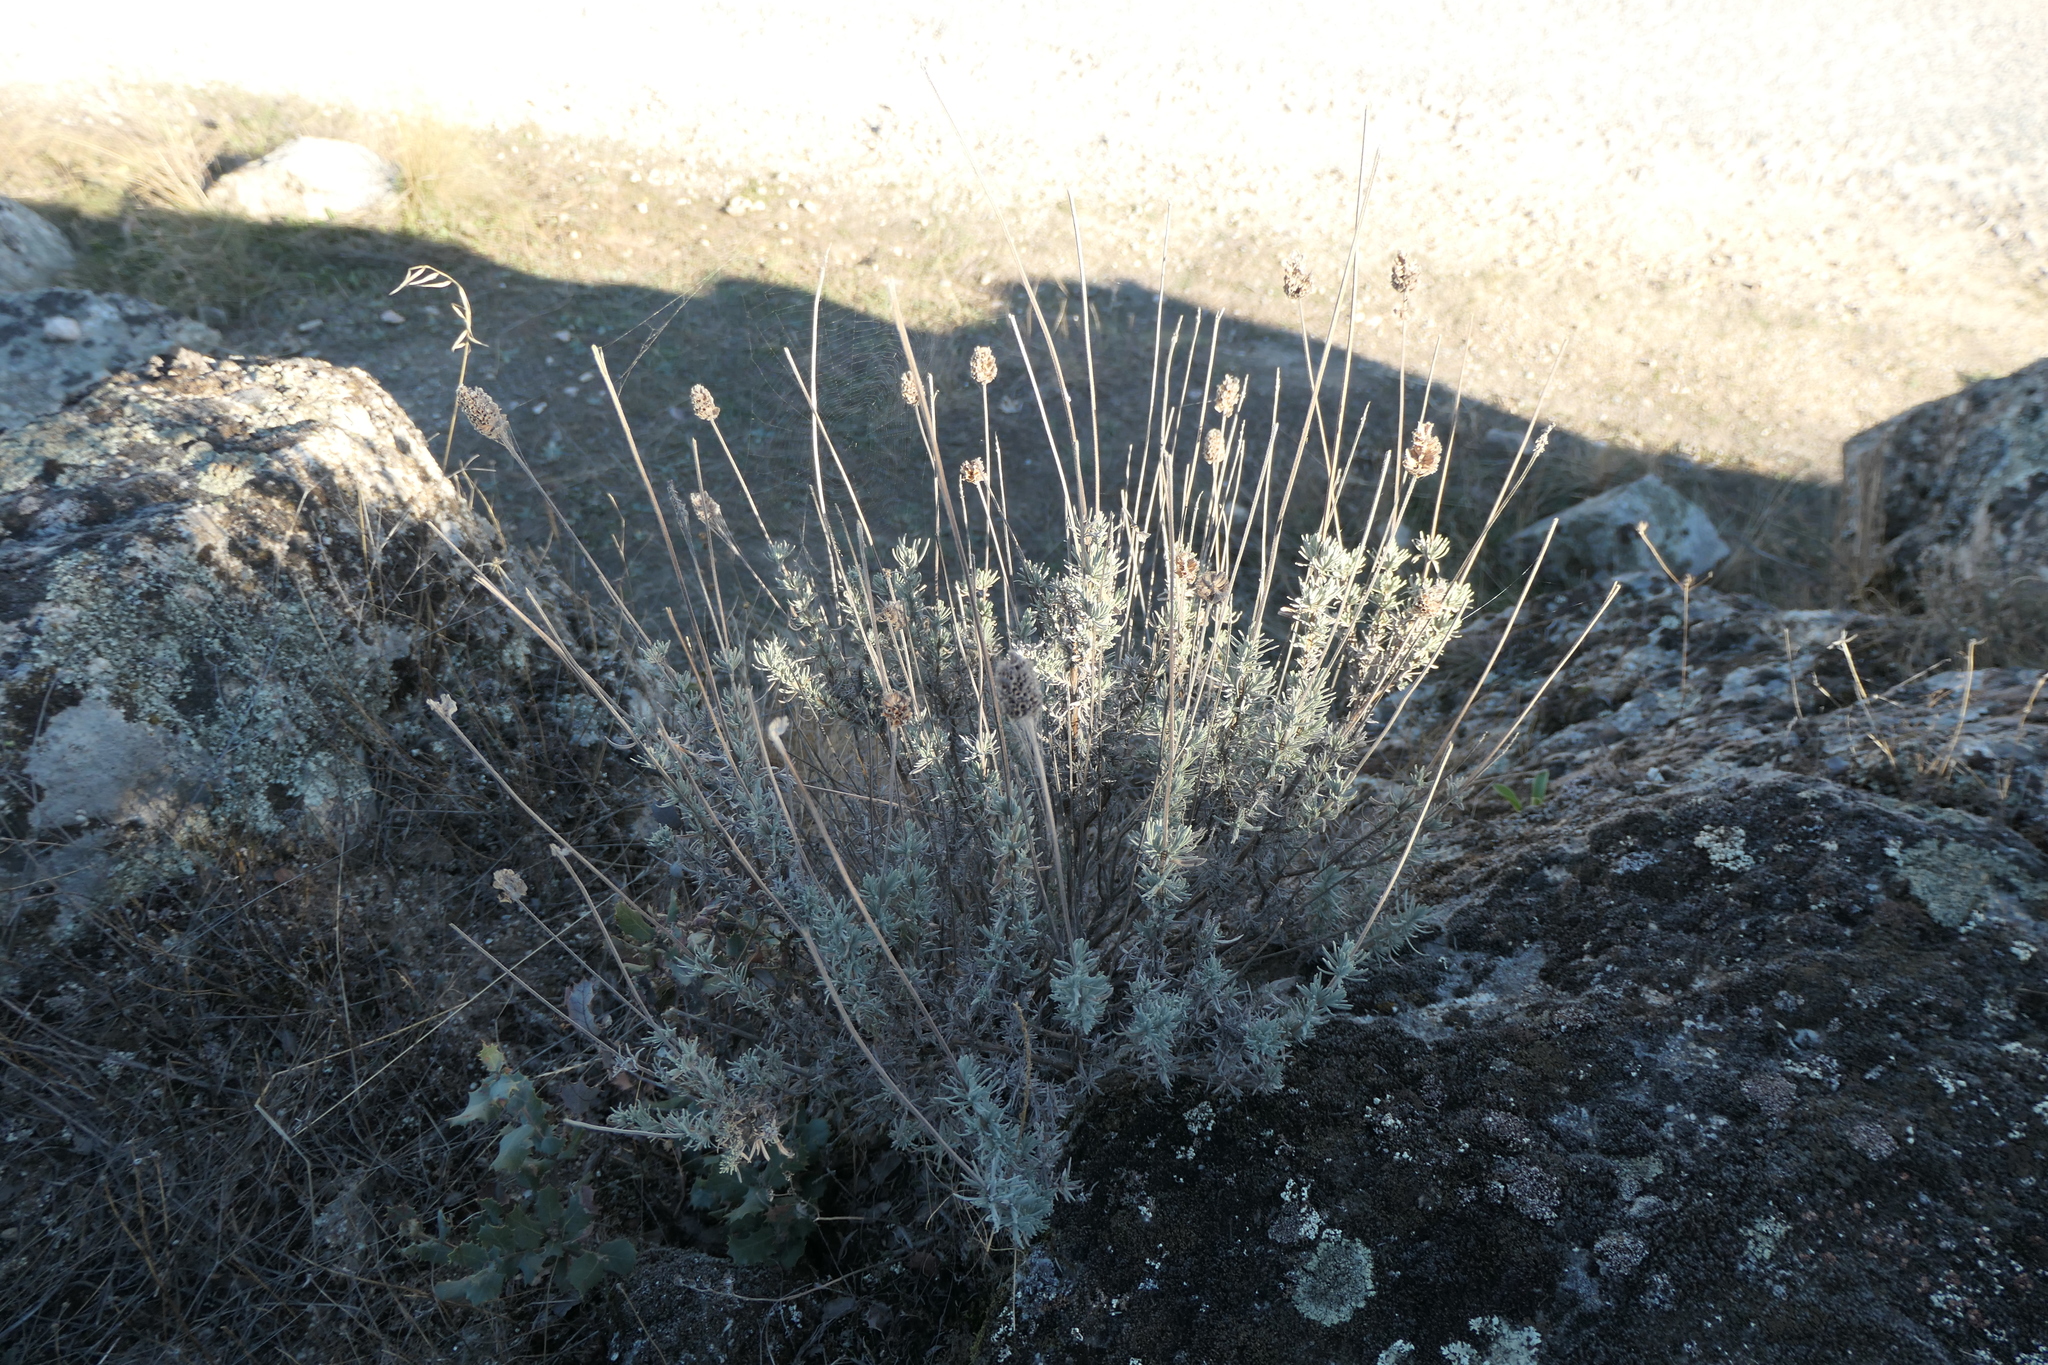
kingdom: Plantae
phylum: Tracheophyta
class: Magnoliopsida
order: Lamiales
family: Lamiaceae
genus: Lavandula
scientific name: Lavandula pedunculata
